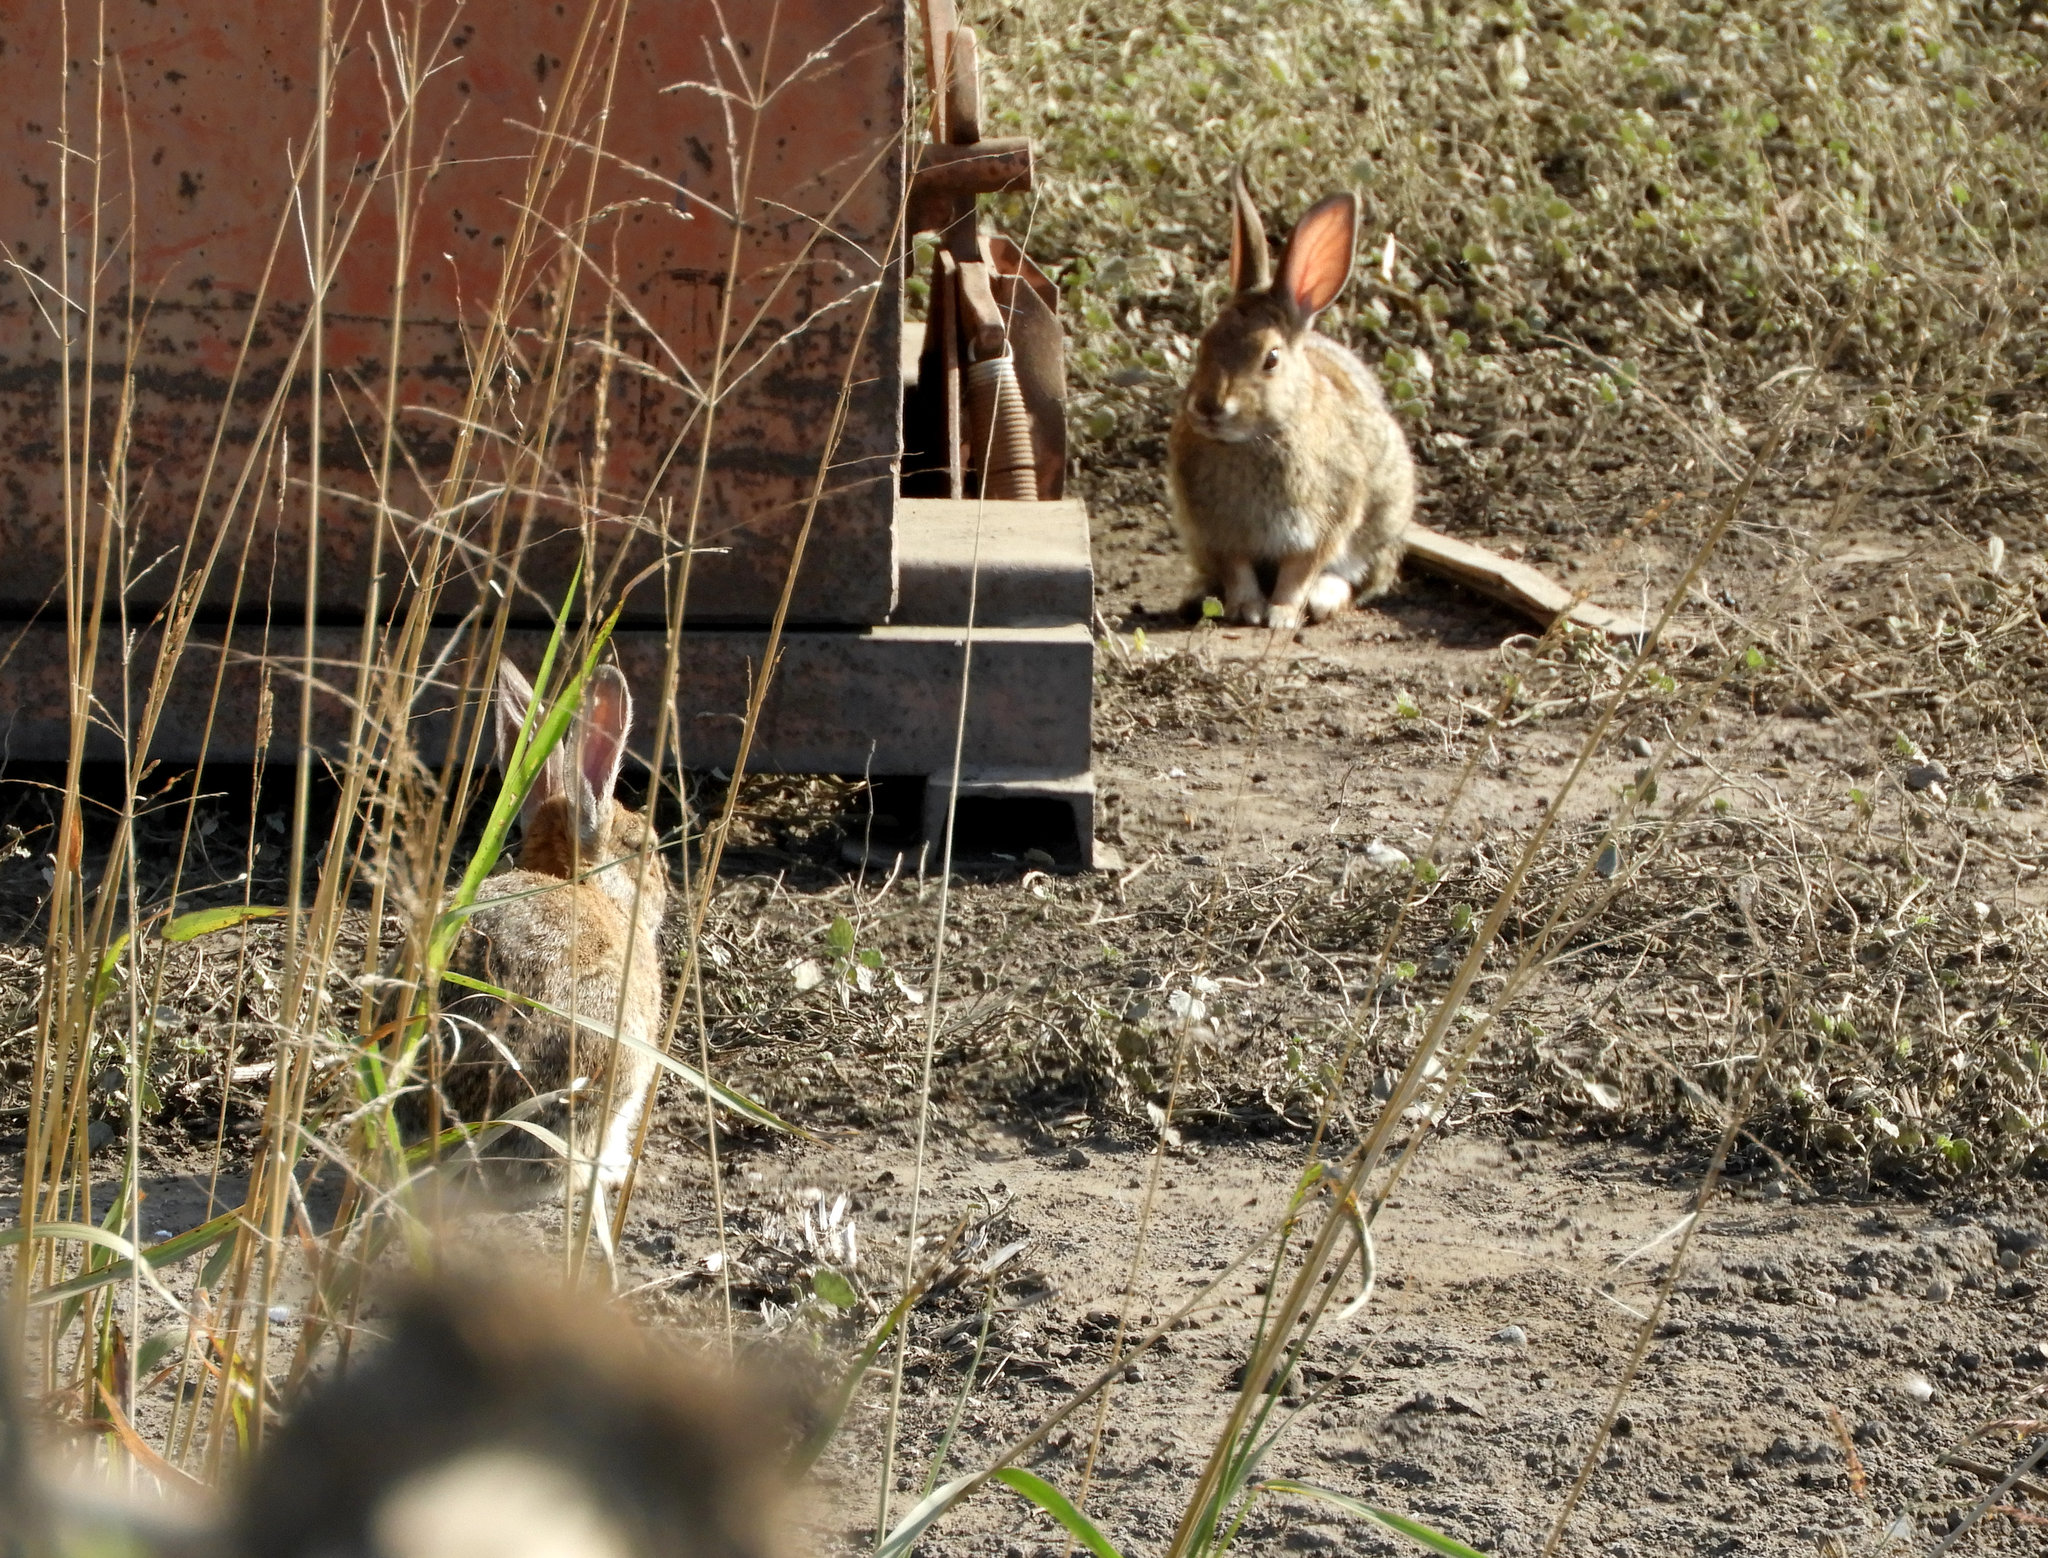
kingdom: Animalia
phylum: Chordata
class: Mammalia
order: Lagomorpha
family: Leporidae
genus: Sylvilagus
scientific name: Sylvilagus audubonii
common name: Desert cottontail
